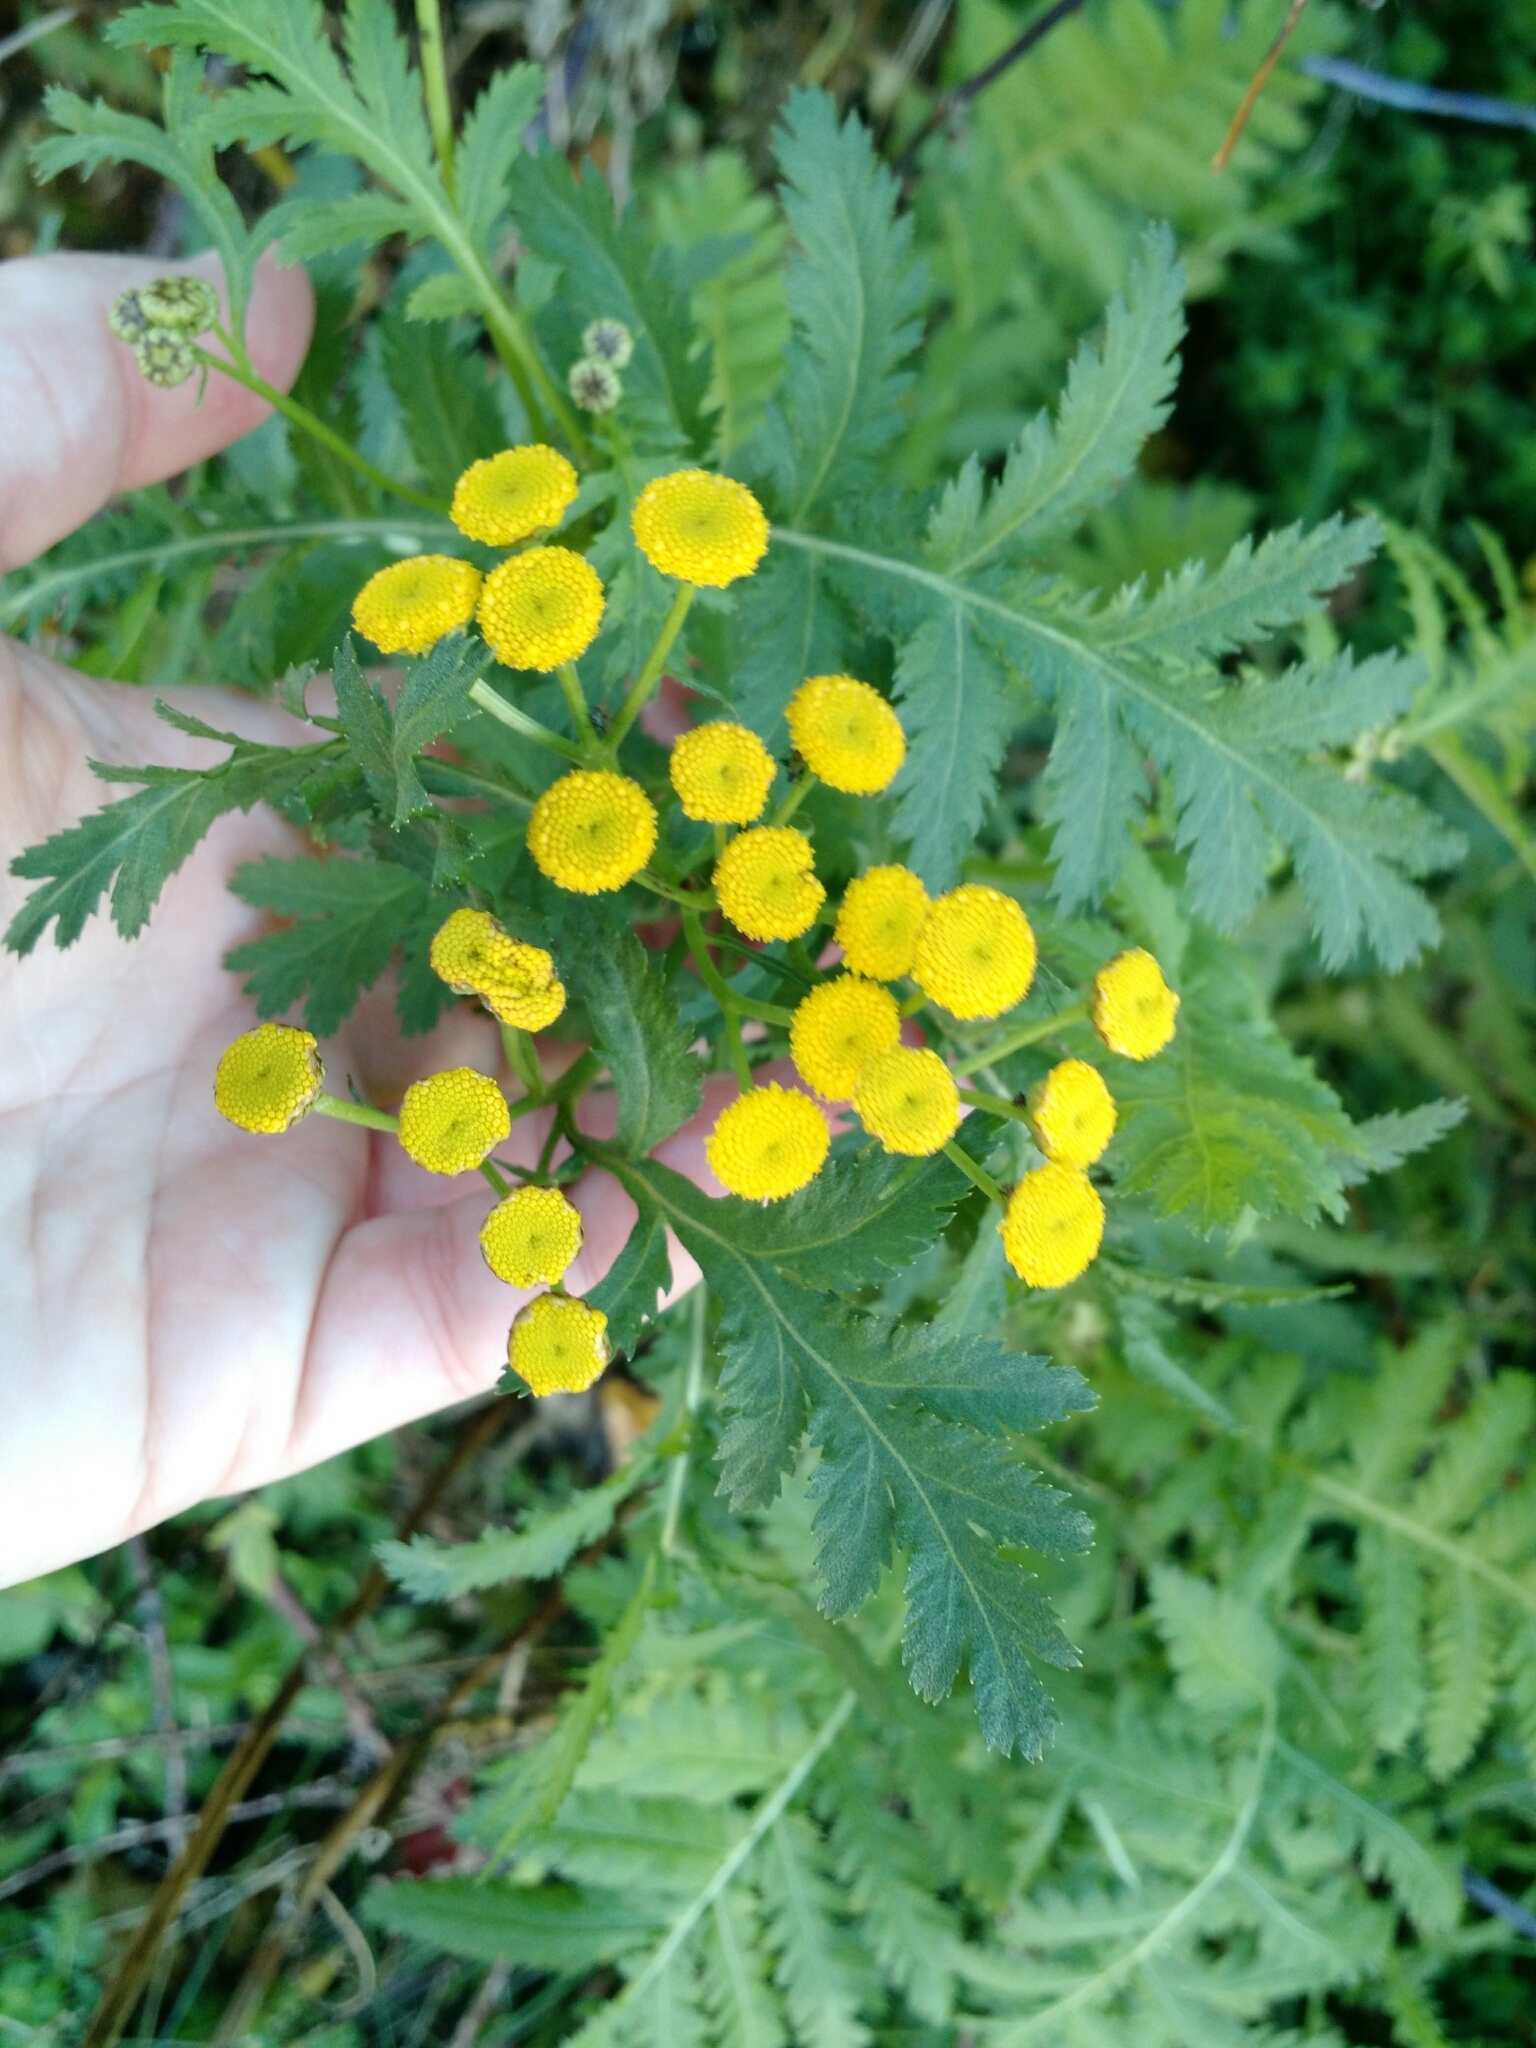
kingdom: Plantae
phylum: Tracheophyta
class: Magnoliopsida
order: Asterales
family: Asteraceae
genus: Tanacetum
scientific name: Tanacetum vulgare
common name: Common tansy
